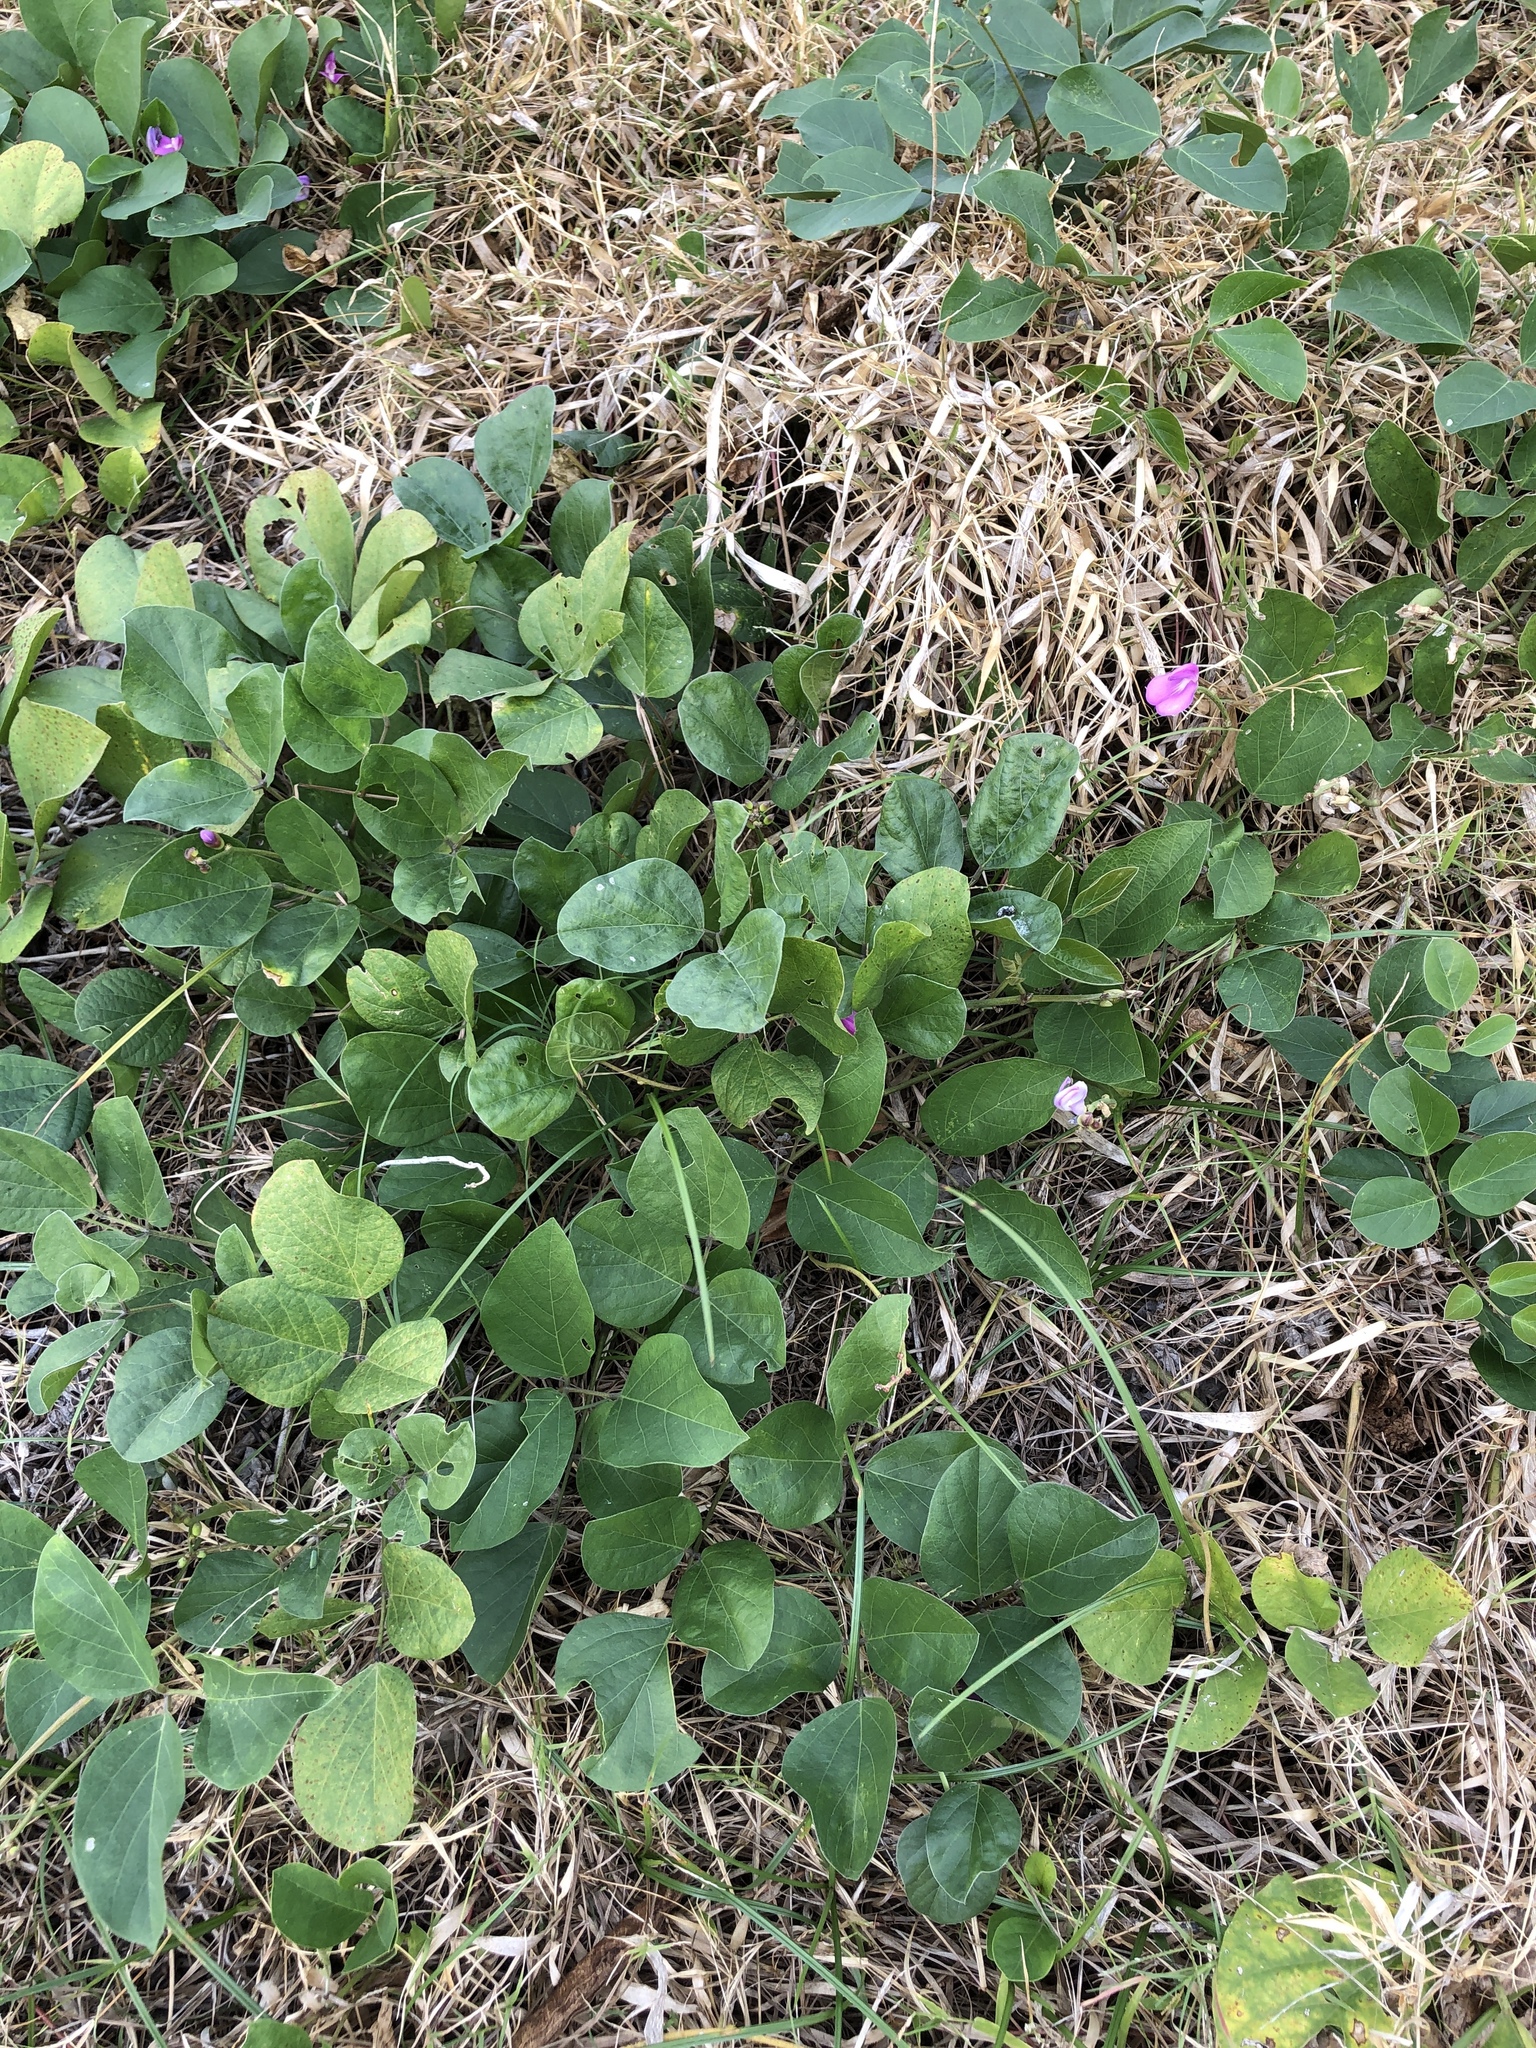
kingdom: Plantae
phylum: Tracheophyta
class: Magnoliopsida
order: Fabales
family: Fabaceae
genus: Canavalia
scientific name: Canavalia rosea
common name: Beach-bean
